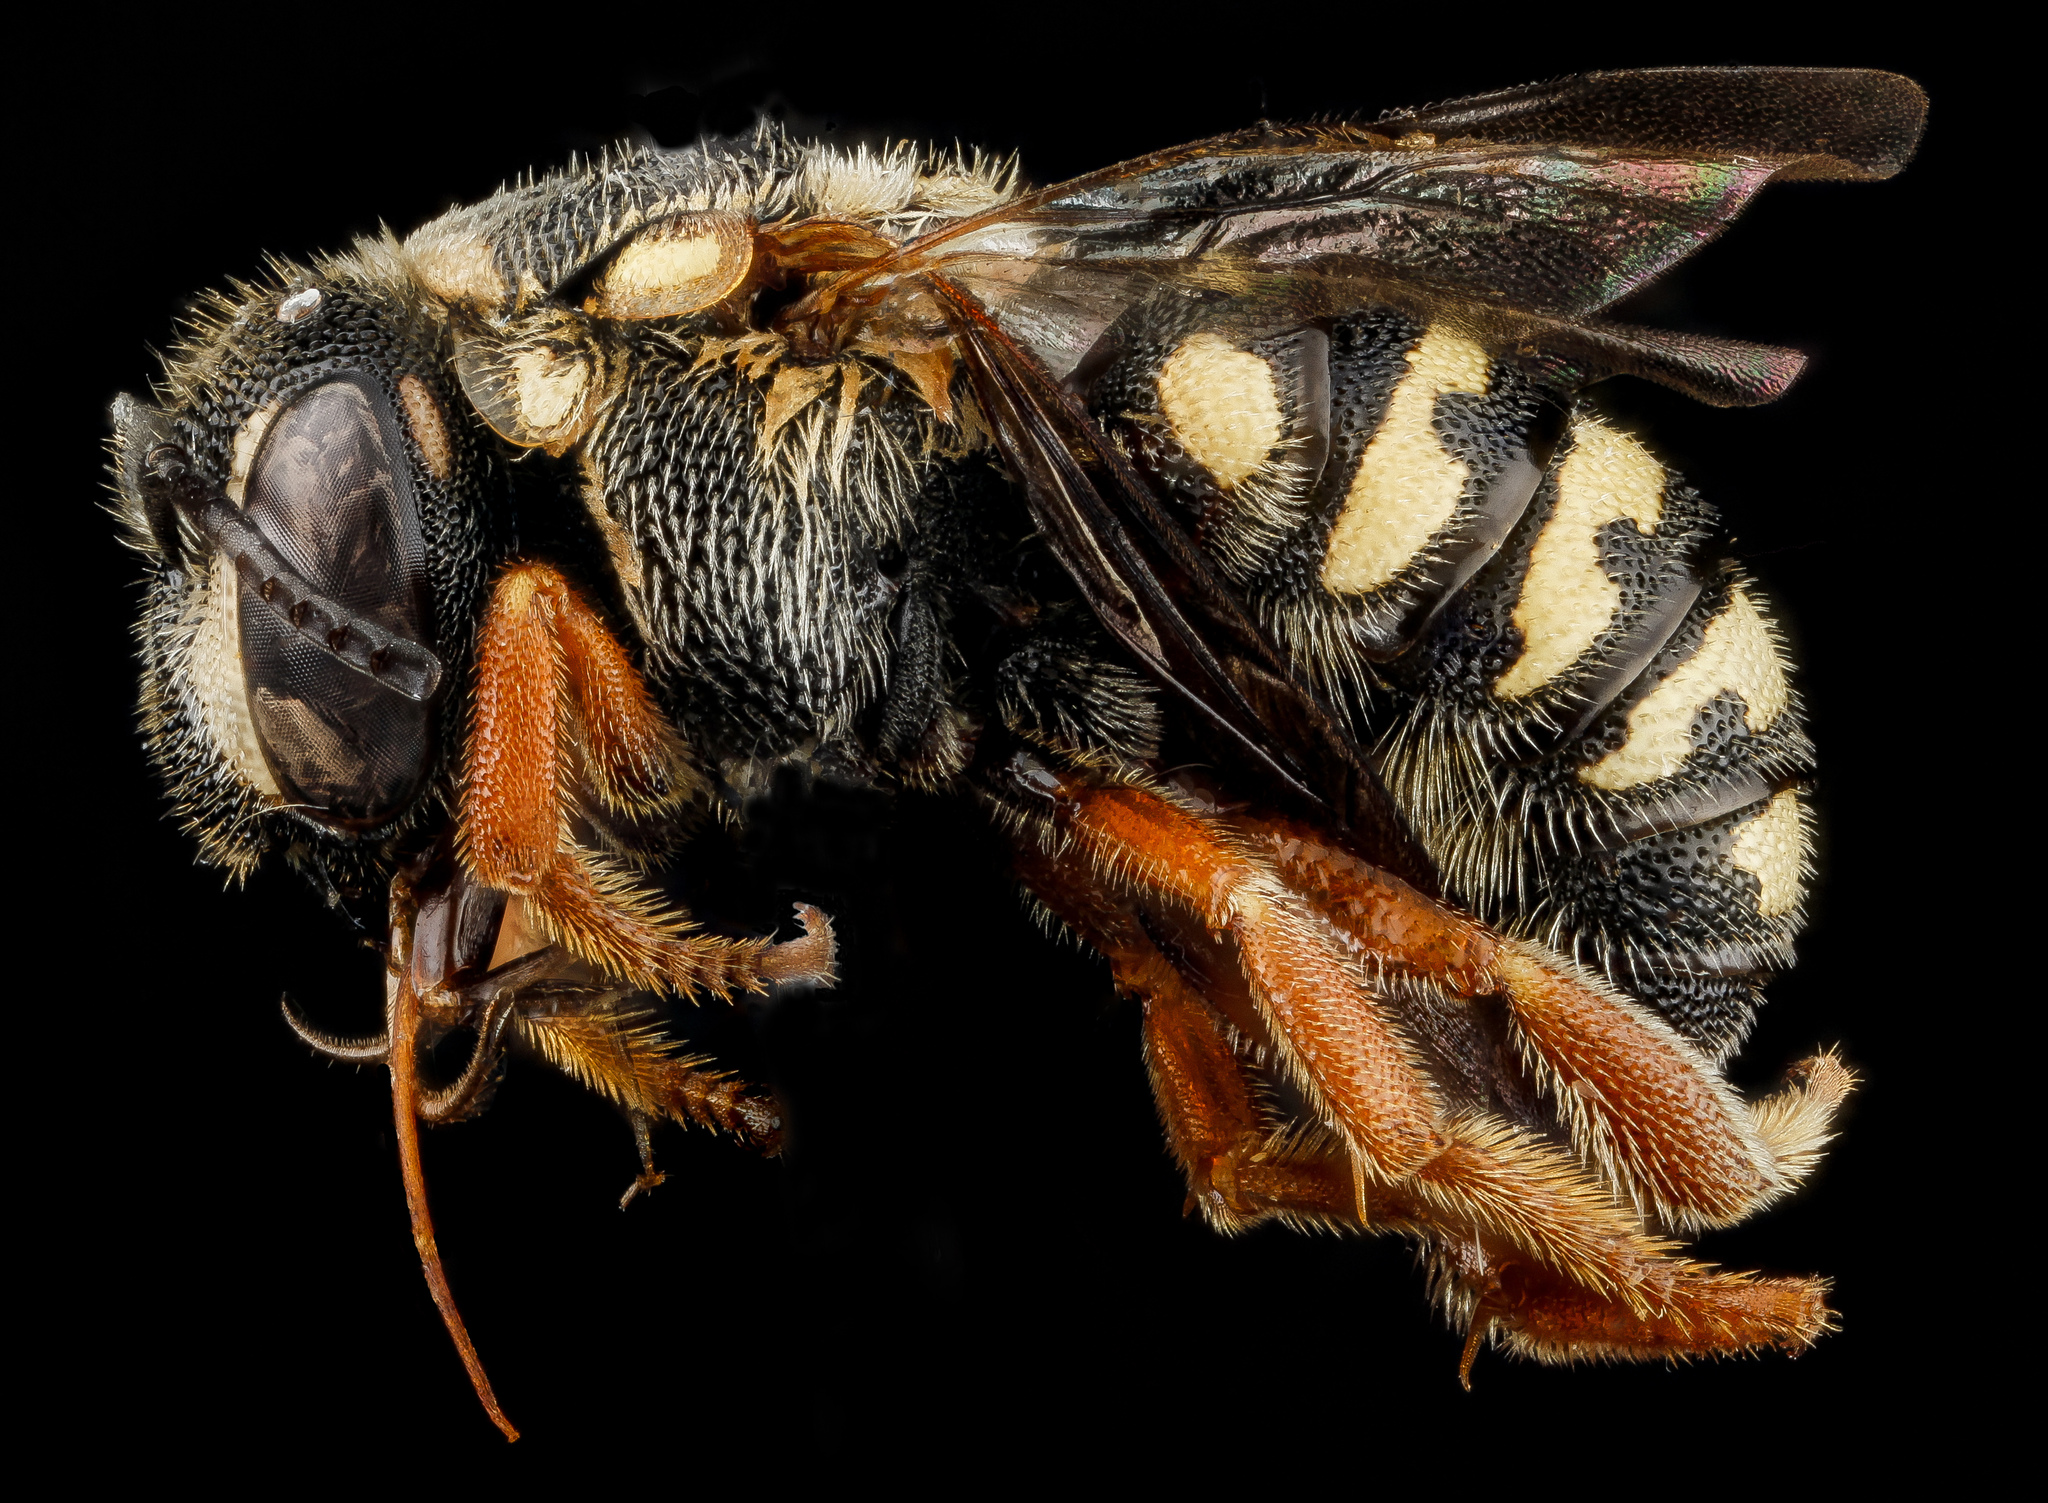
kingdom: Animalia
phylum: Arthropoda
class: Insecta
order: Hymenoptera
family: Megachilidae
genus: Dianthidium
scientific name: Dianthidium ulkei
